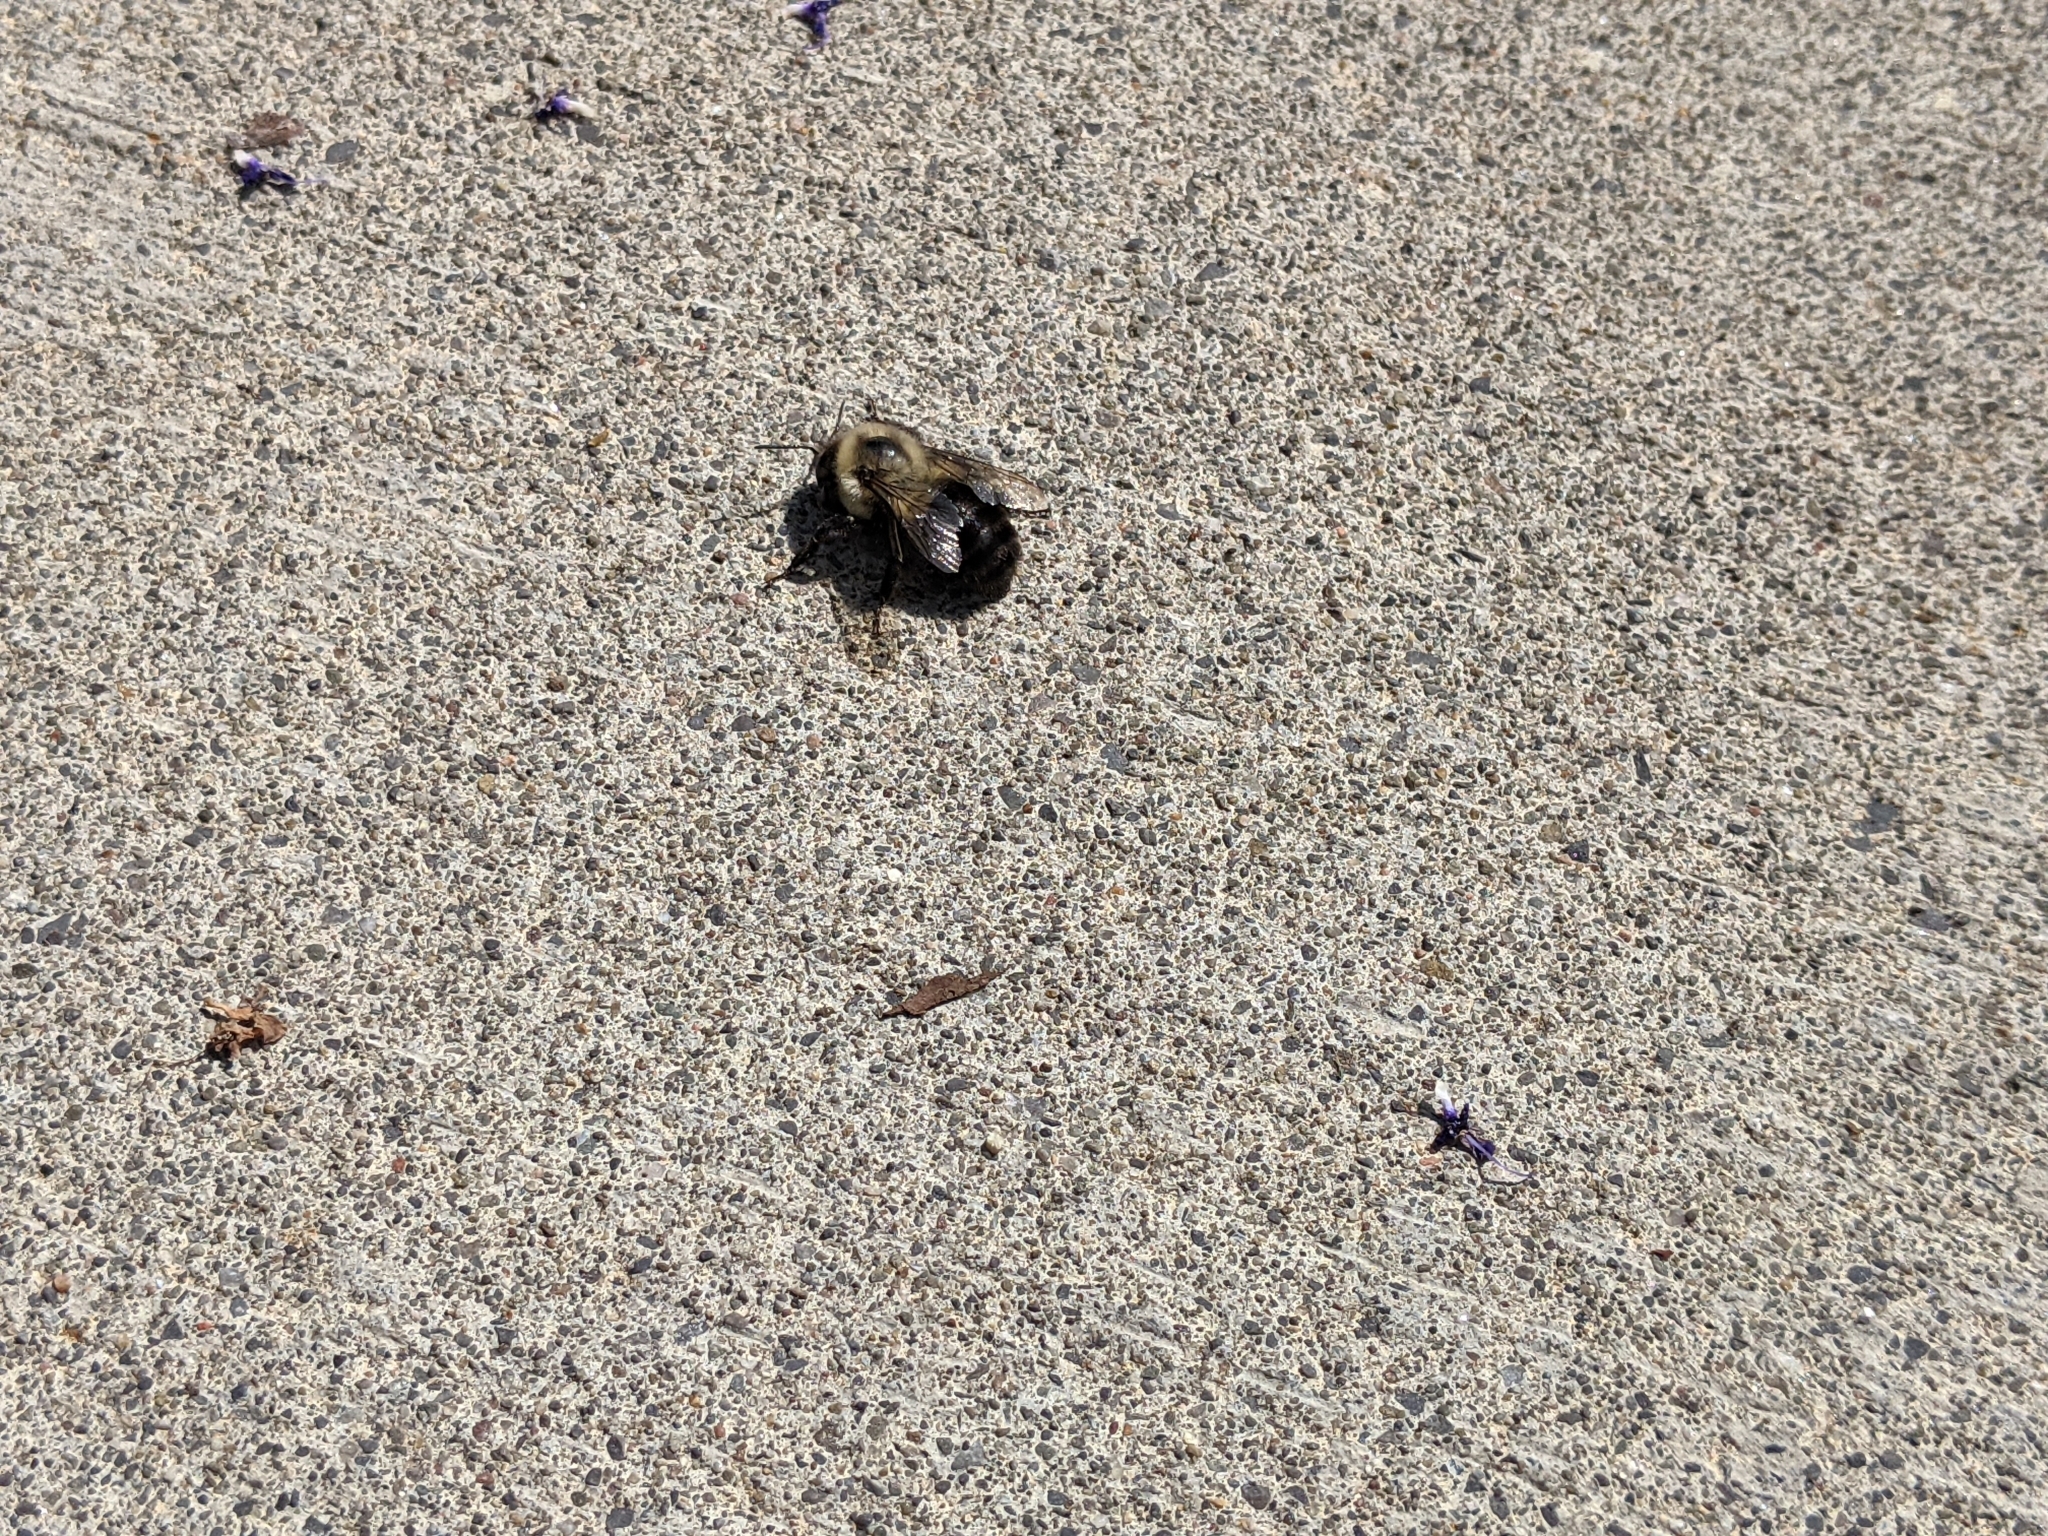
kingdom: Animalia
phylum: Arthropoda
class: Insecta
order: Hymenoptera
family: Apidae
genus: Bombus
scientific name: Bombus impatiens
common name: Common eastern bumble bee
